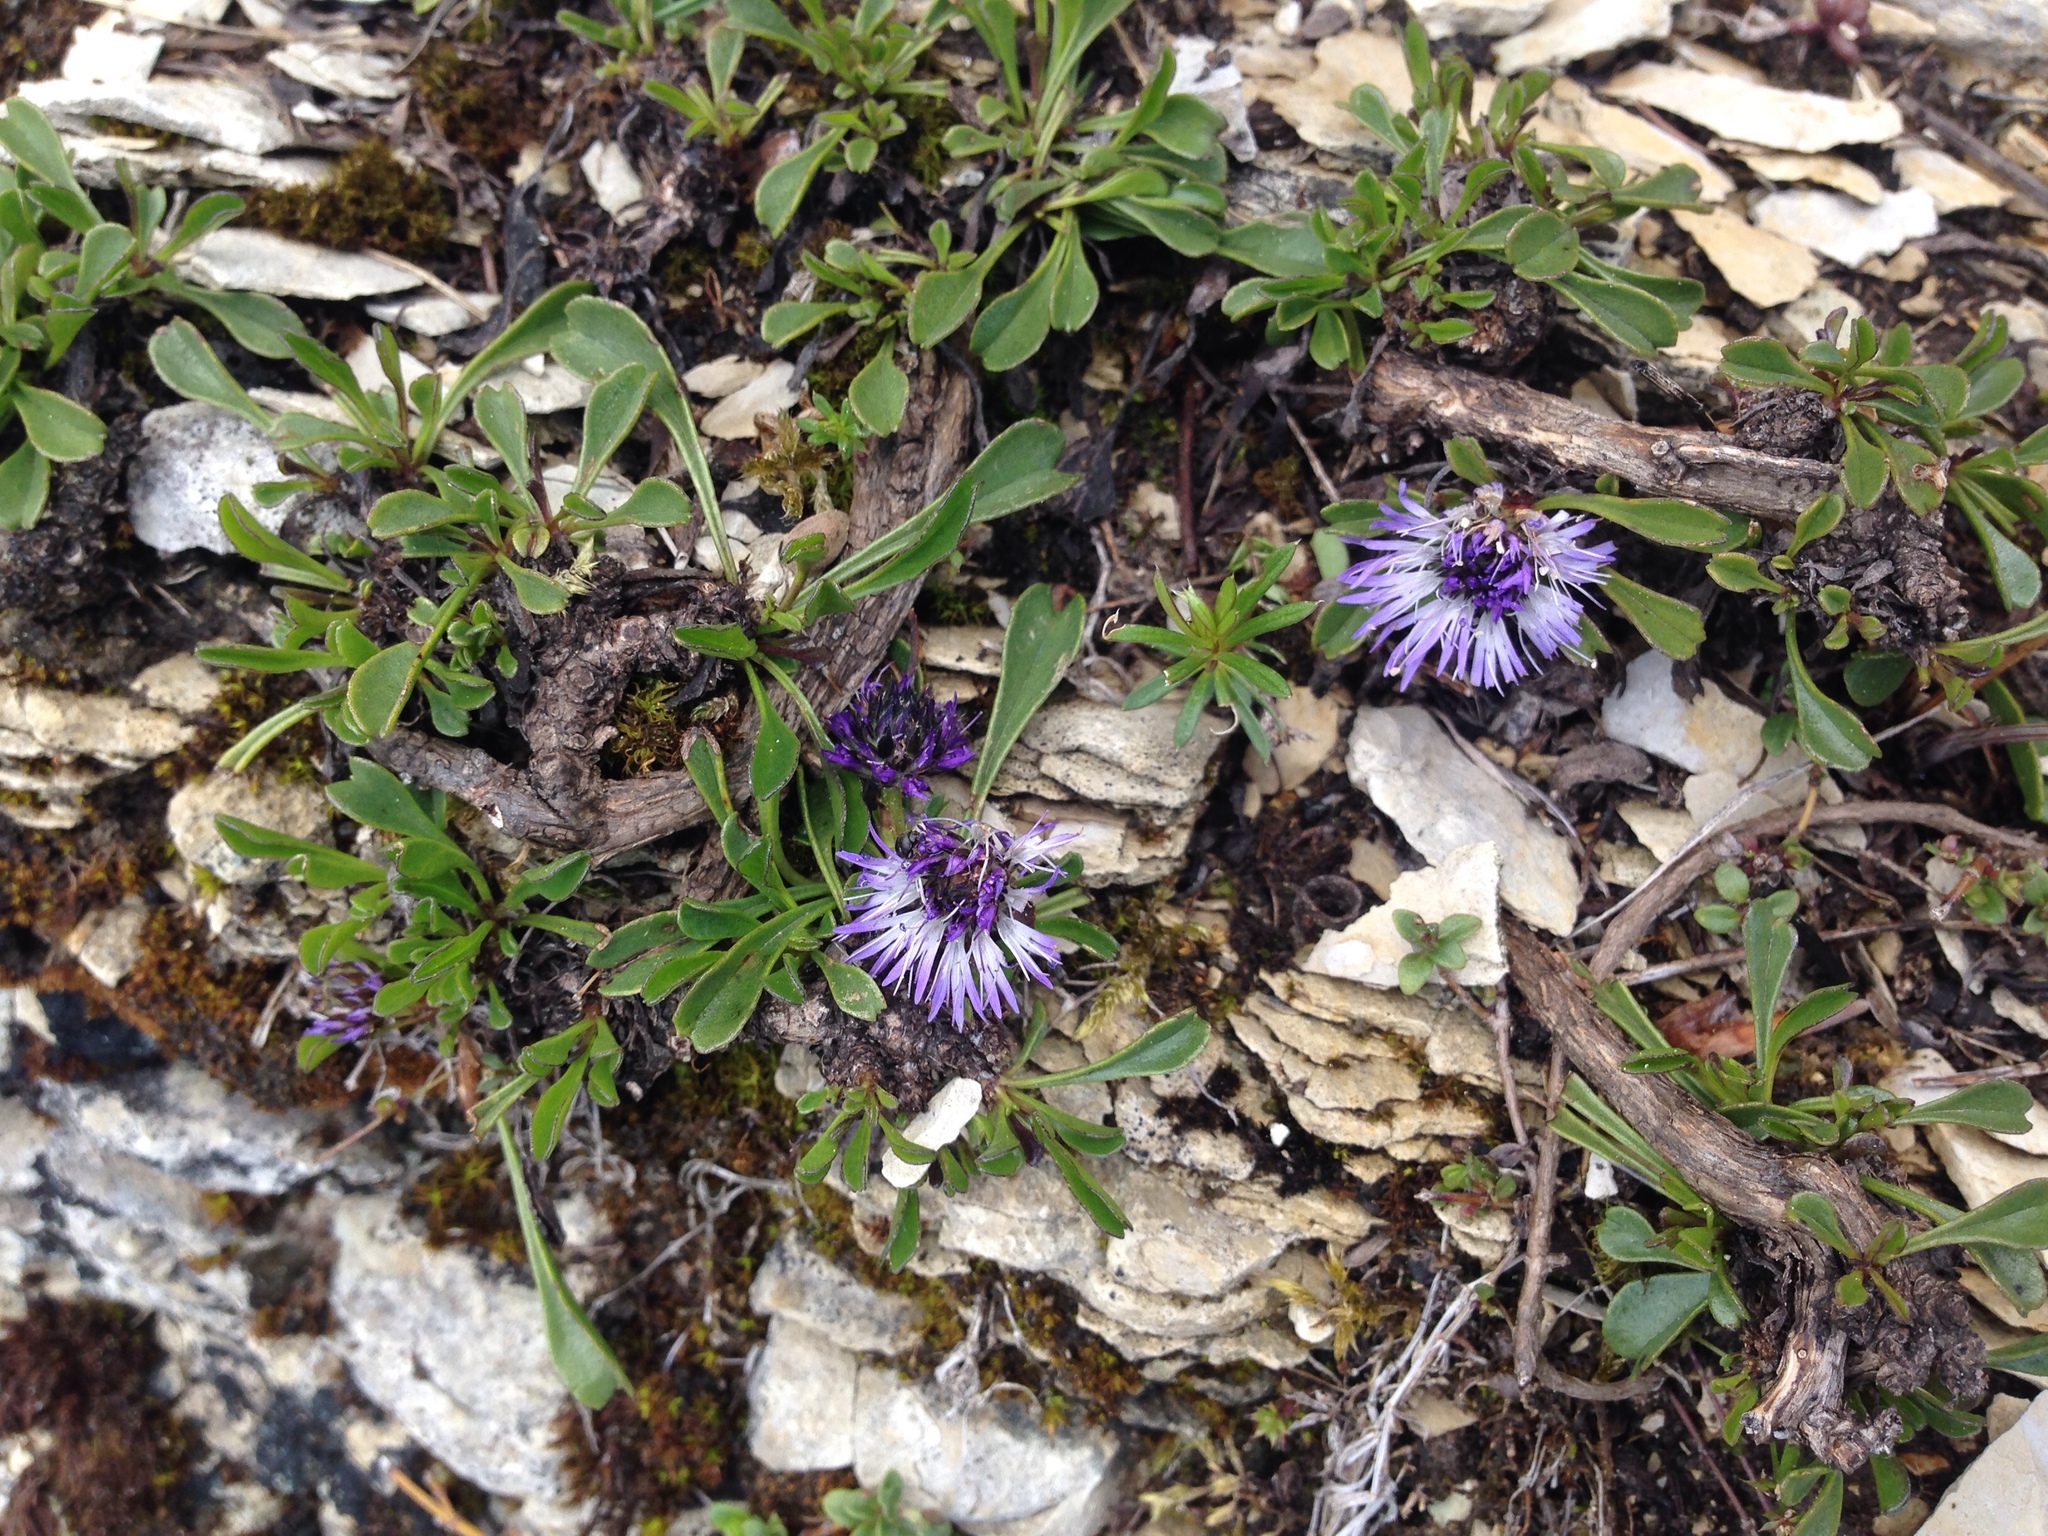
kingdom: Plantae
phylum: Tracheophyta
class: Magnoliopsida
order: Lamiales
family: Plantaginaceae
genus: Globularia
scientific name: Globularia cordifolia
